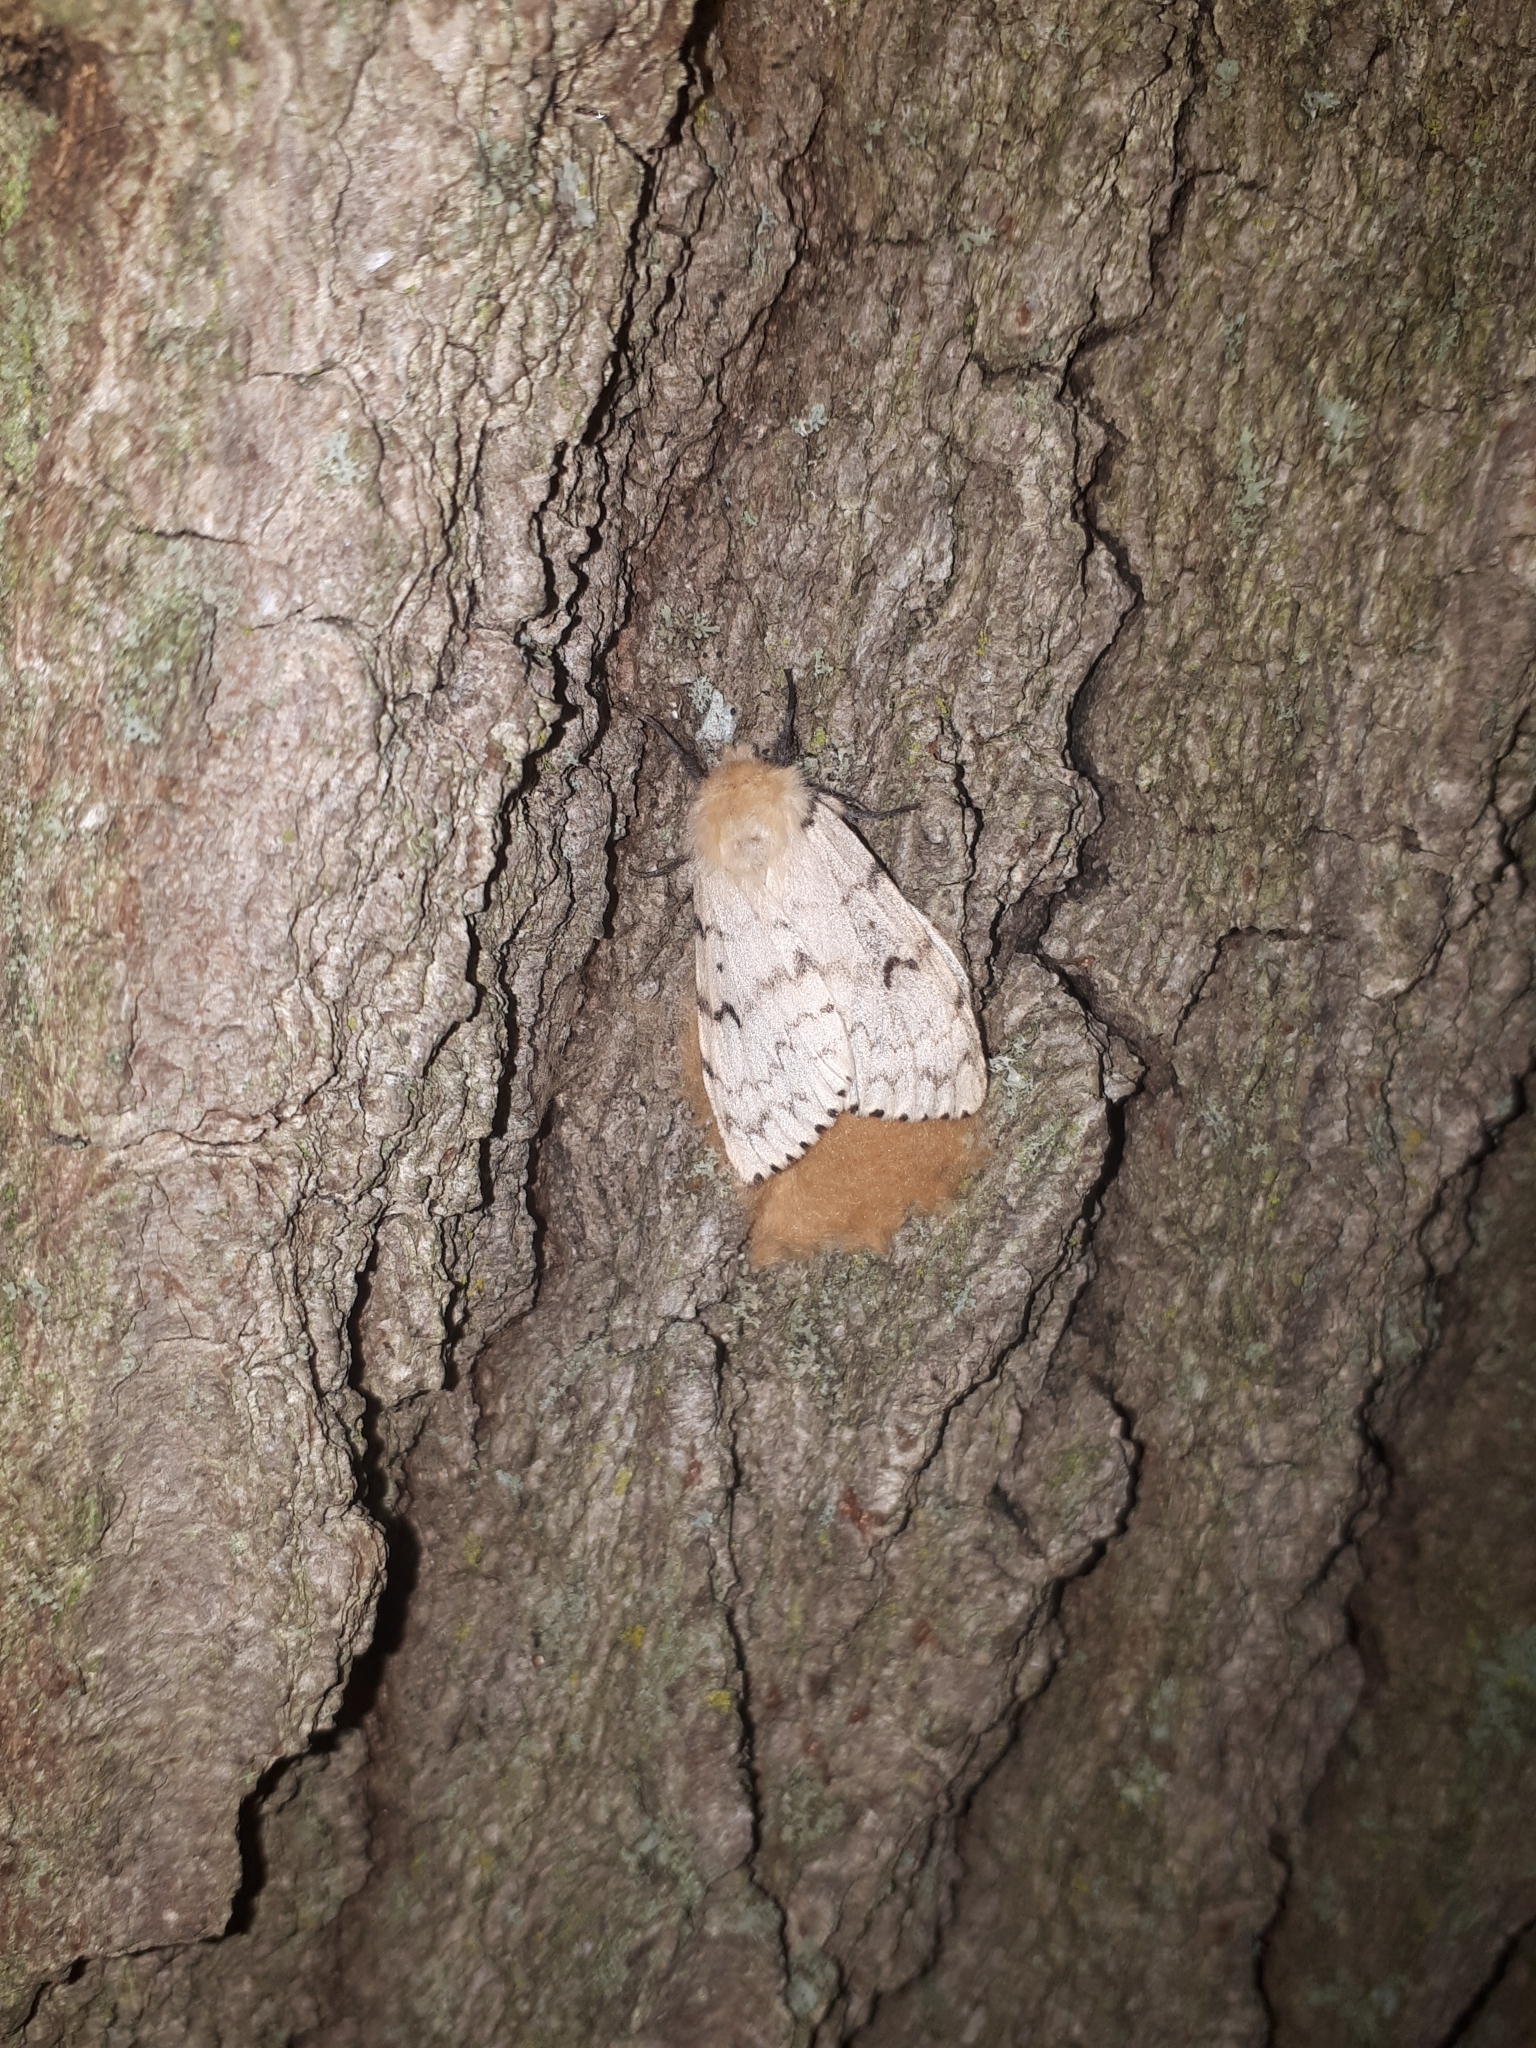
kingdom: Animalia
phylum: Arthropoda
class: Insecta
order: Lepidoptera
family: Erebidae
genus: Lymantria
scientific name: Lymantria dispar
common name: Gypsy moth
